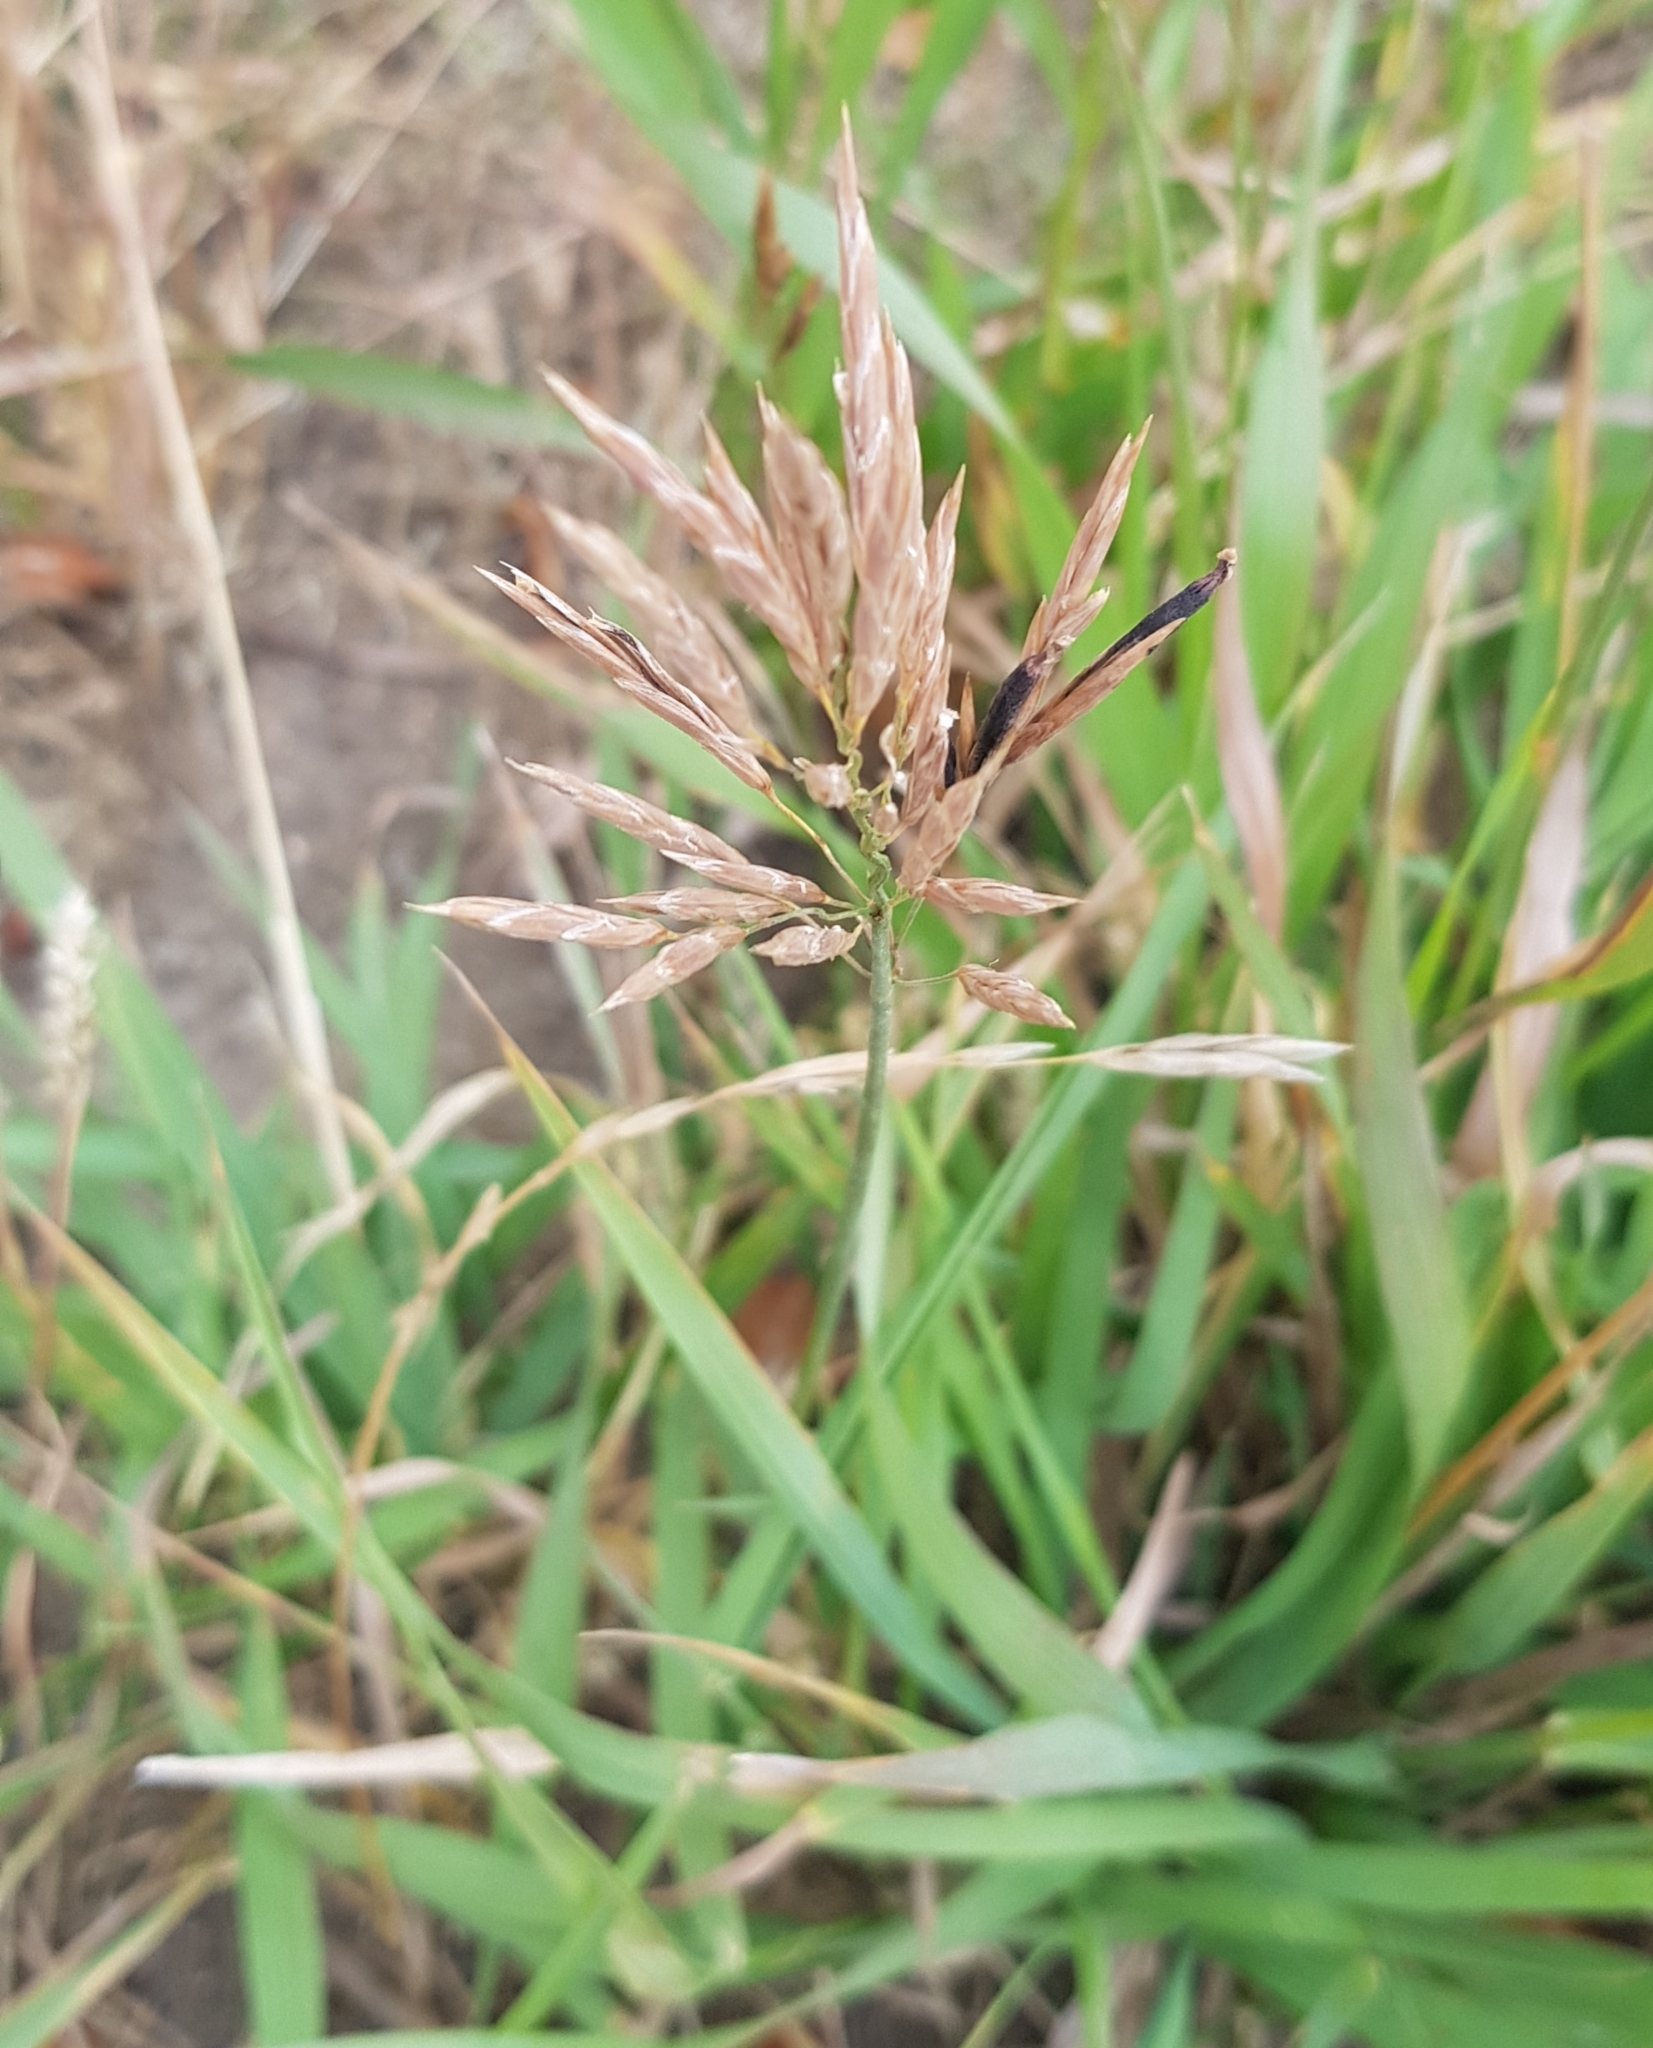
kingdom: Plantae
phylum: Tracheophyta
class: Liliopsida
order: Poales
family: Poaceae
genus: Bromus
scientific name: Bromus inermis
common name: Smooth brome
